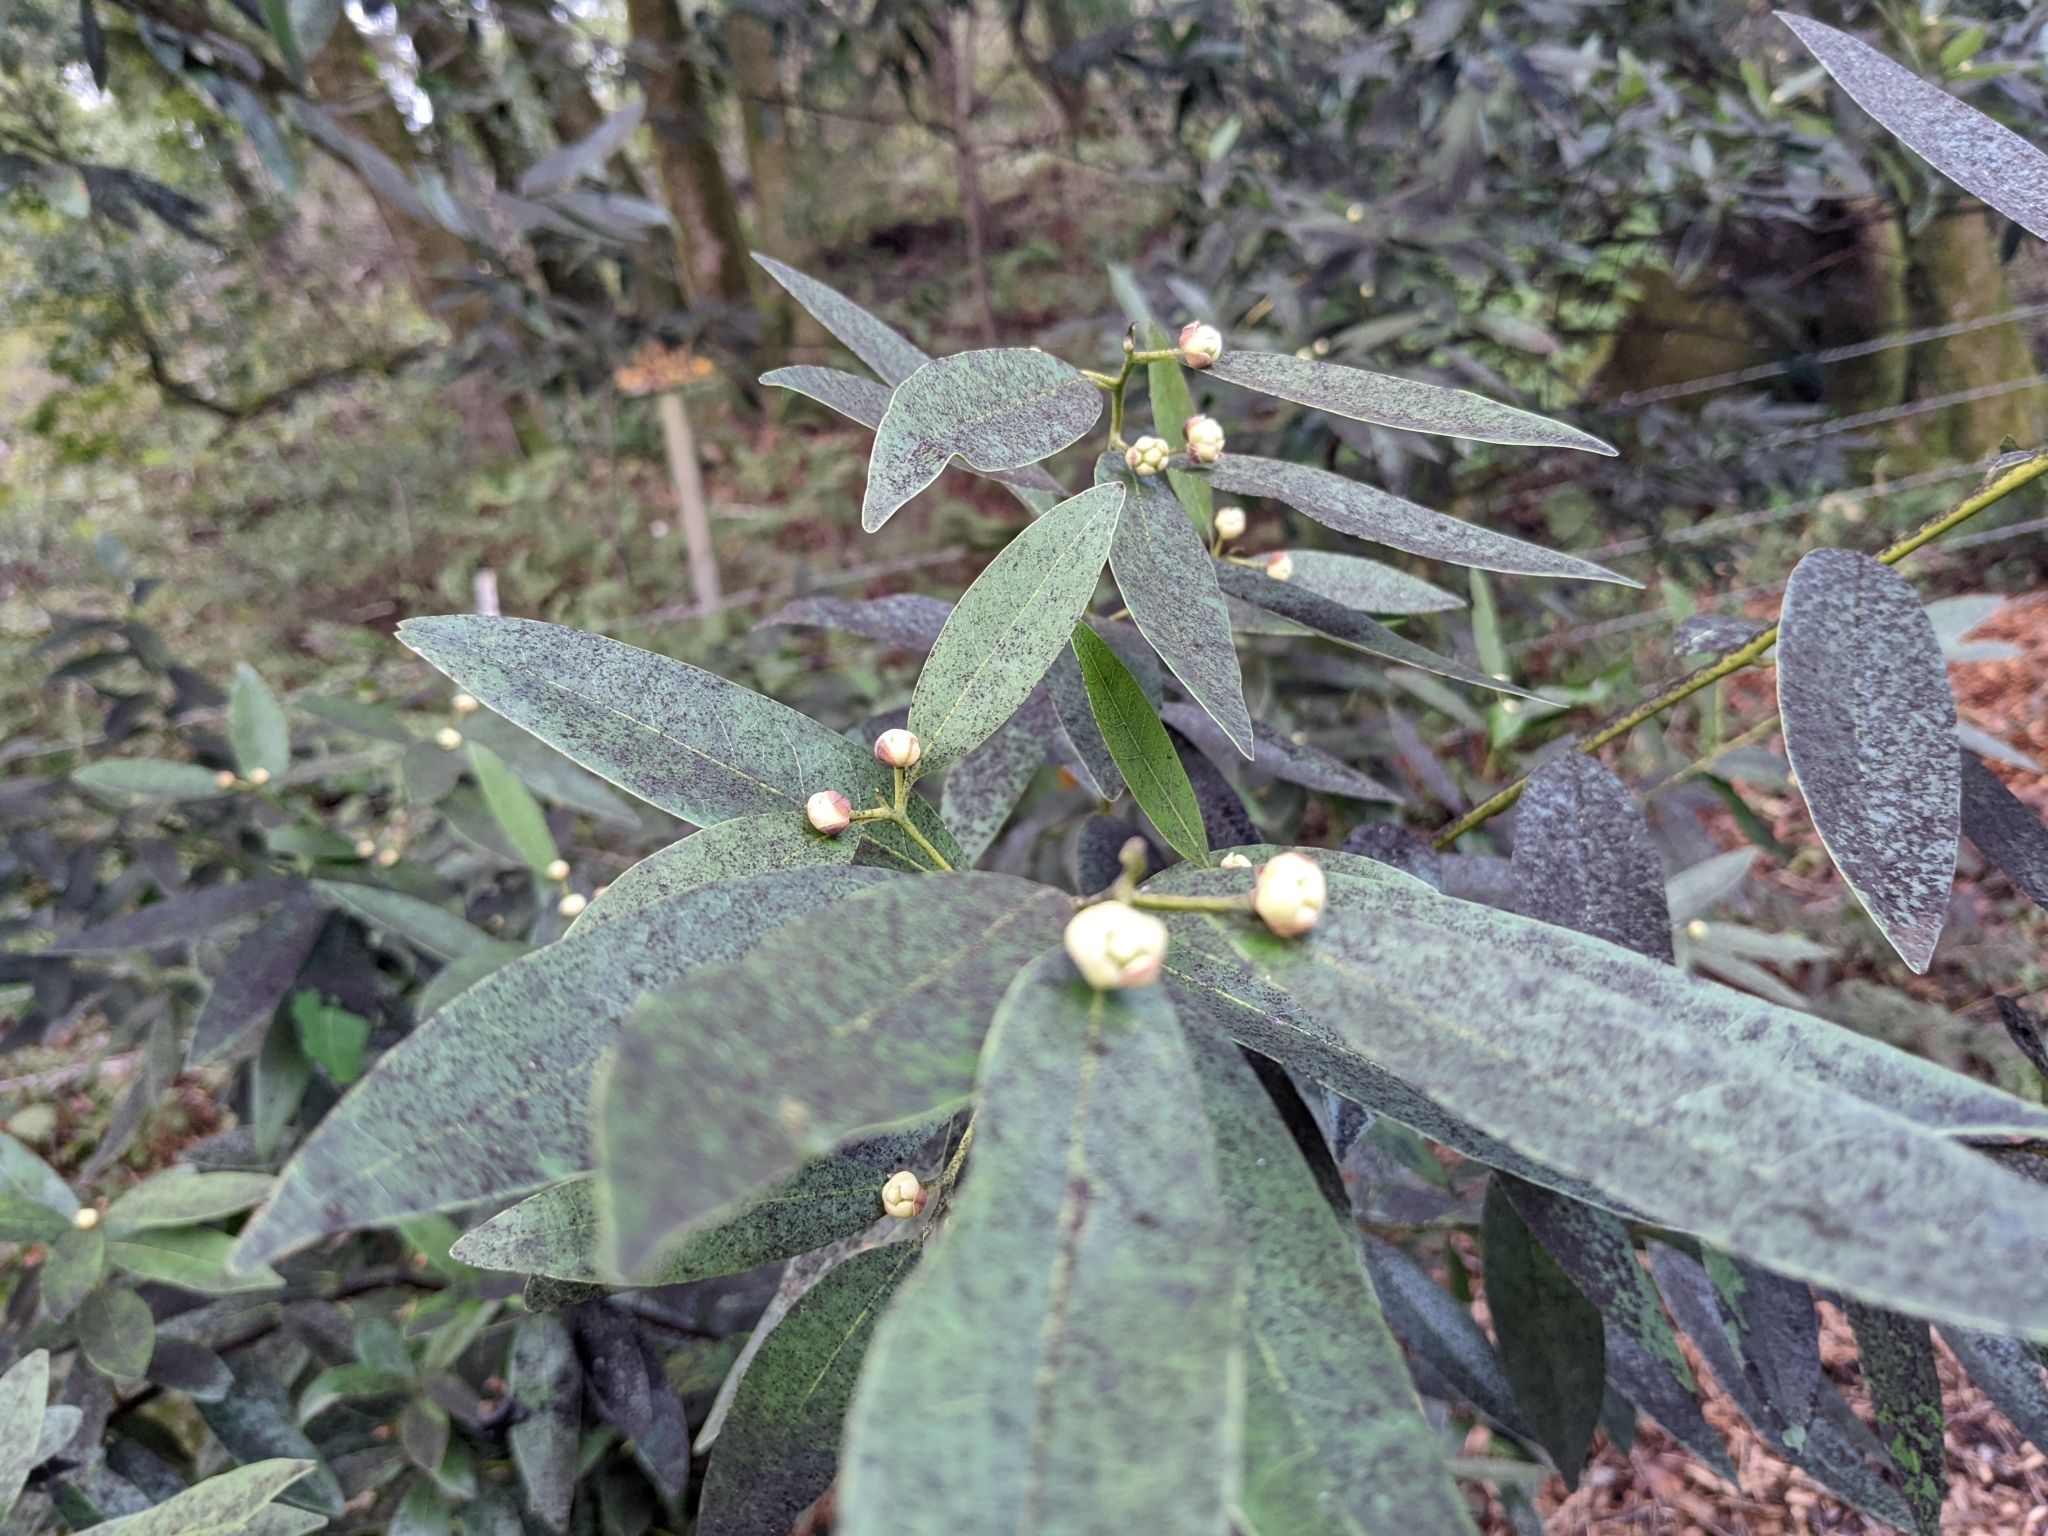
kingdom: Plantae
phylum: Tracheophyta
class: Magnoliopsida
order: Laurales
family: Lauraceae
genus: Umbellularia
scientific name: Umbellularia californica
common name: California bay
